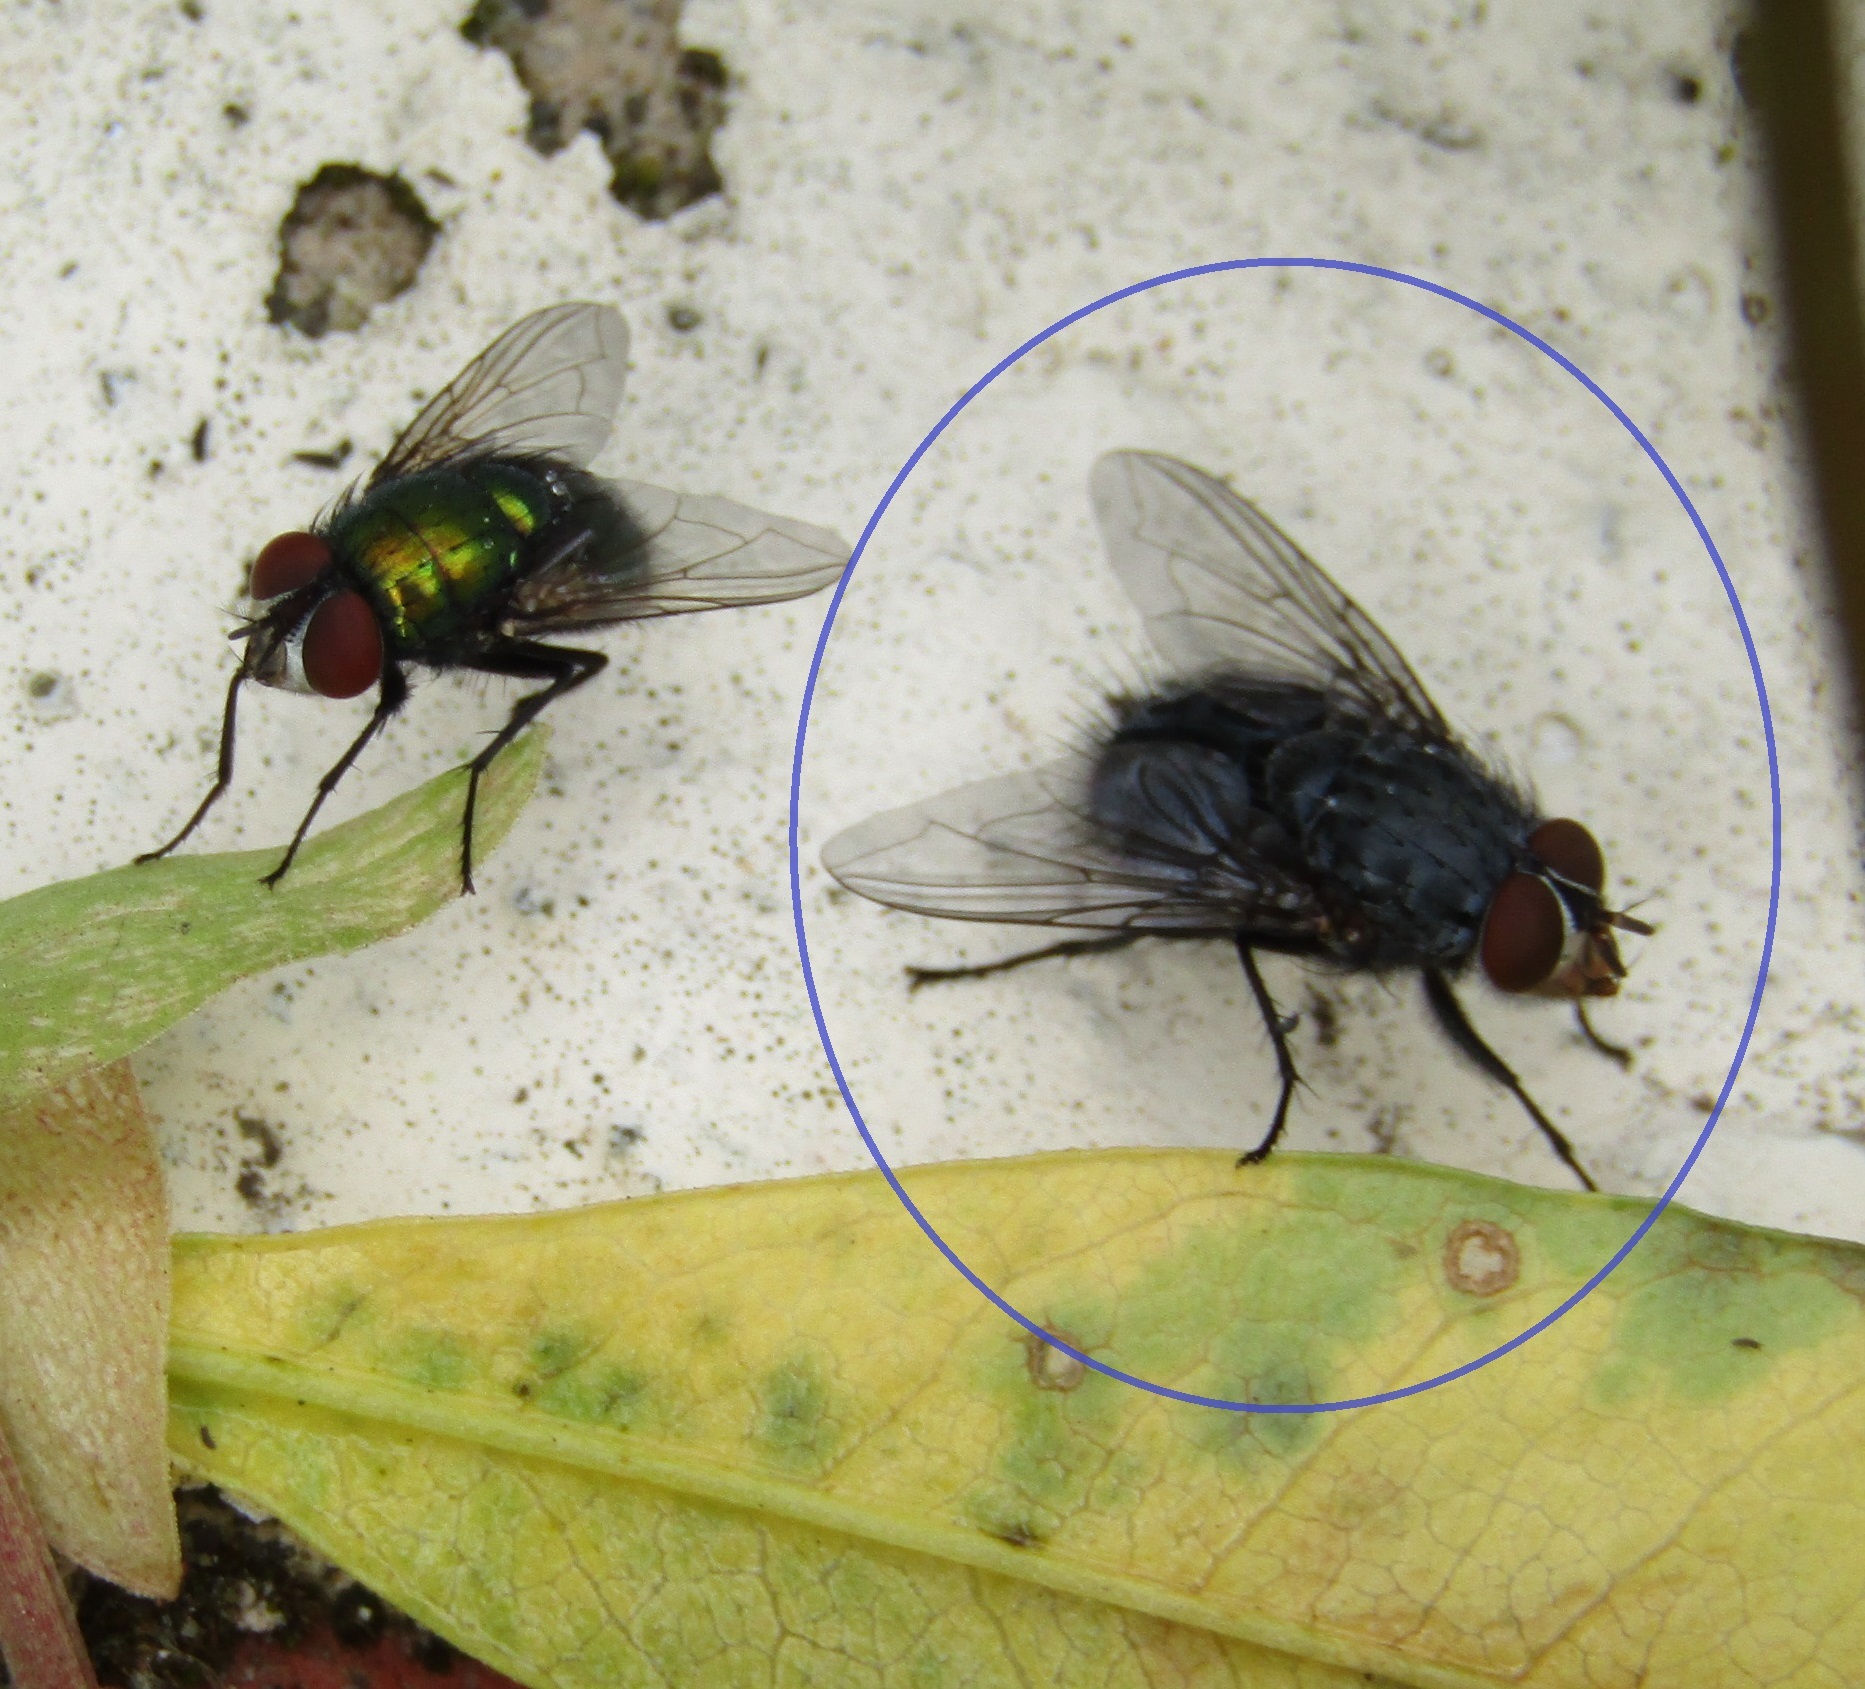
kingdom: Animalia
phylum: Arthropoda
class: Insecta
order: Diptera
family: Calliphoridae
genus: Calliphora
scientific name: Calliphora vicina
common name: Common blow flie
